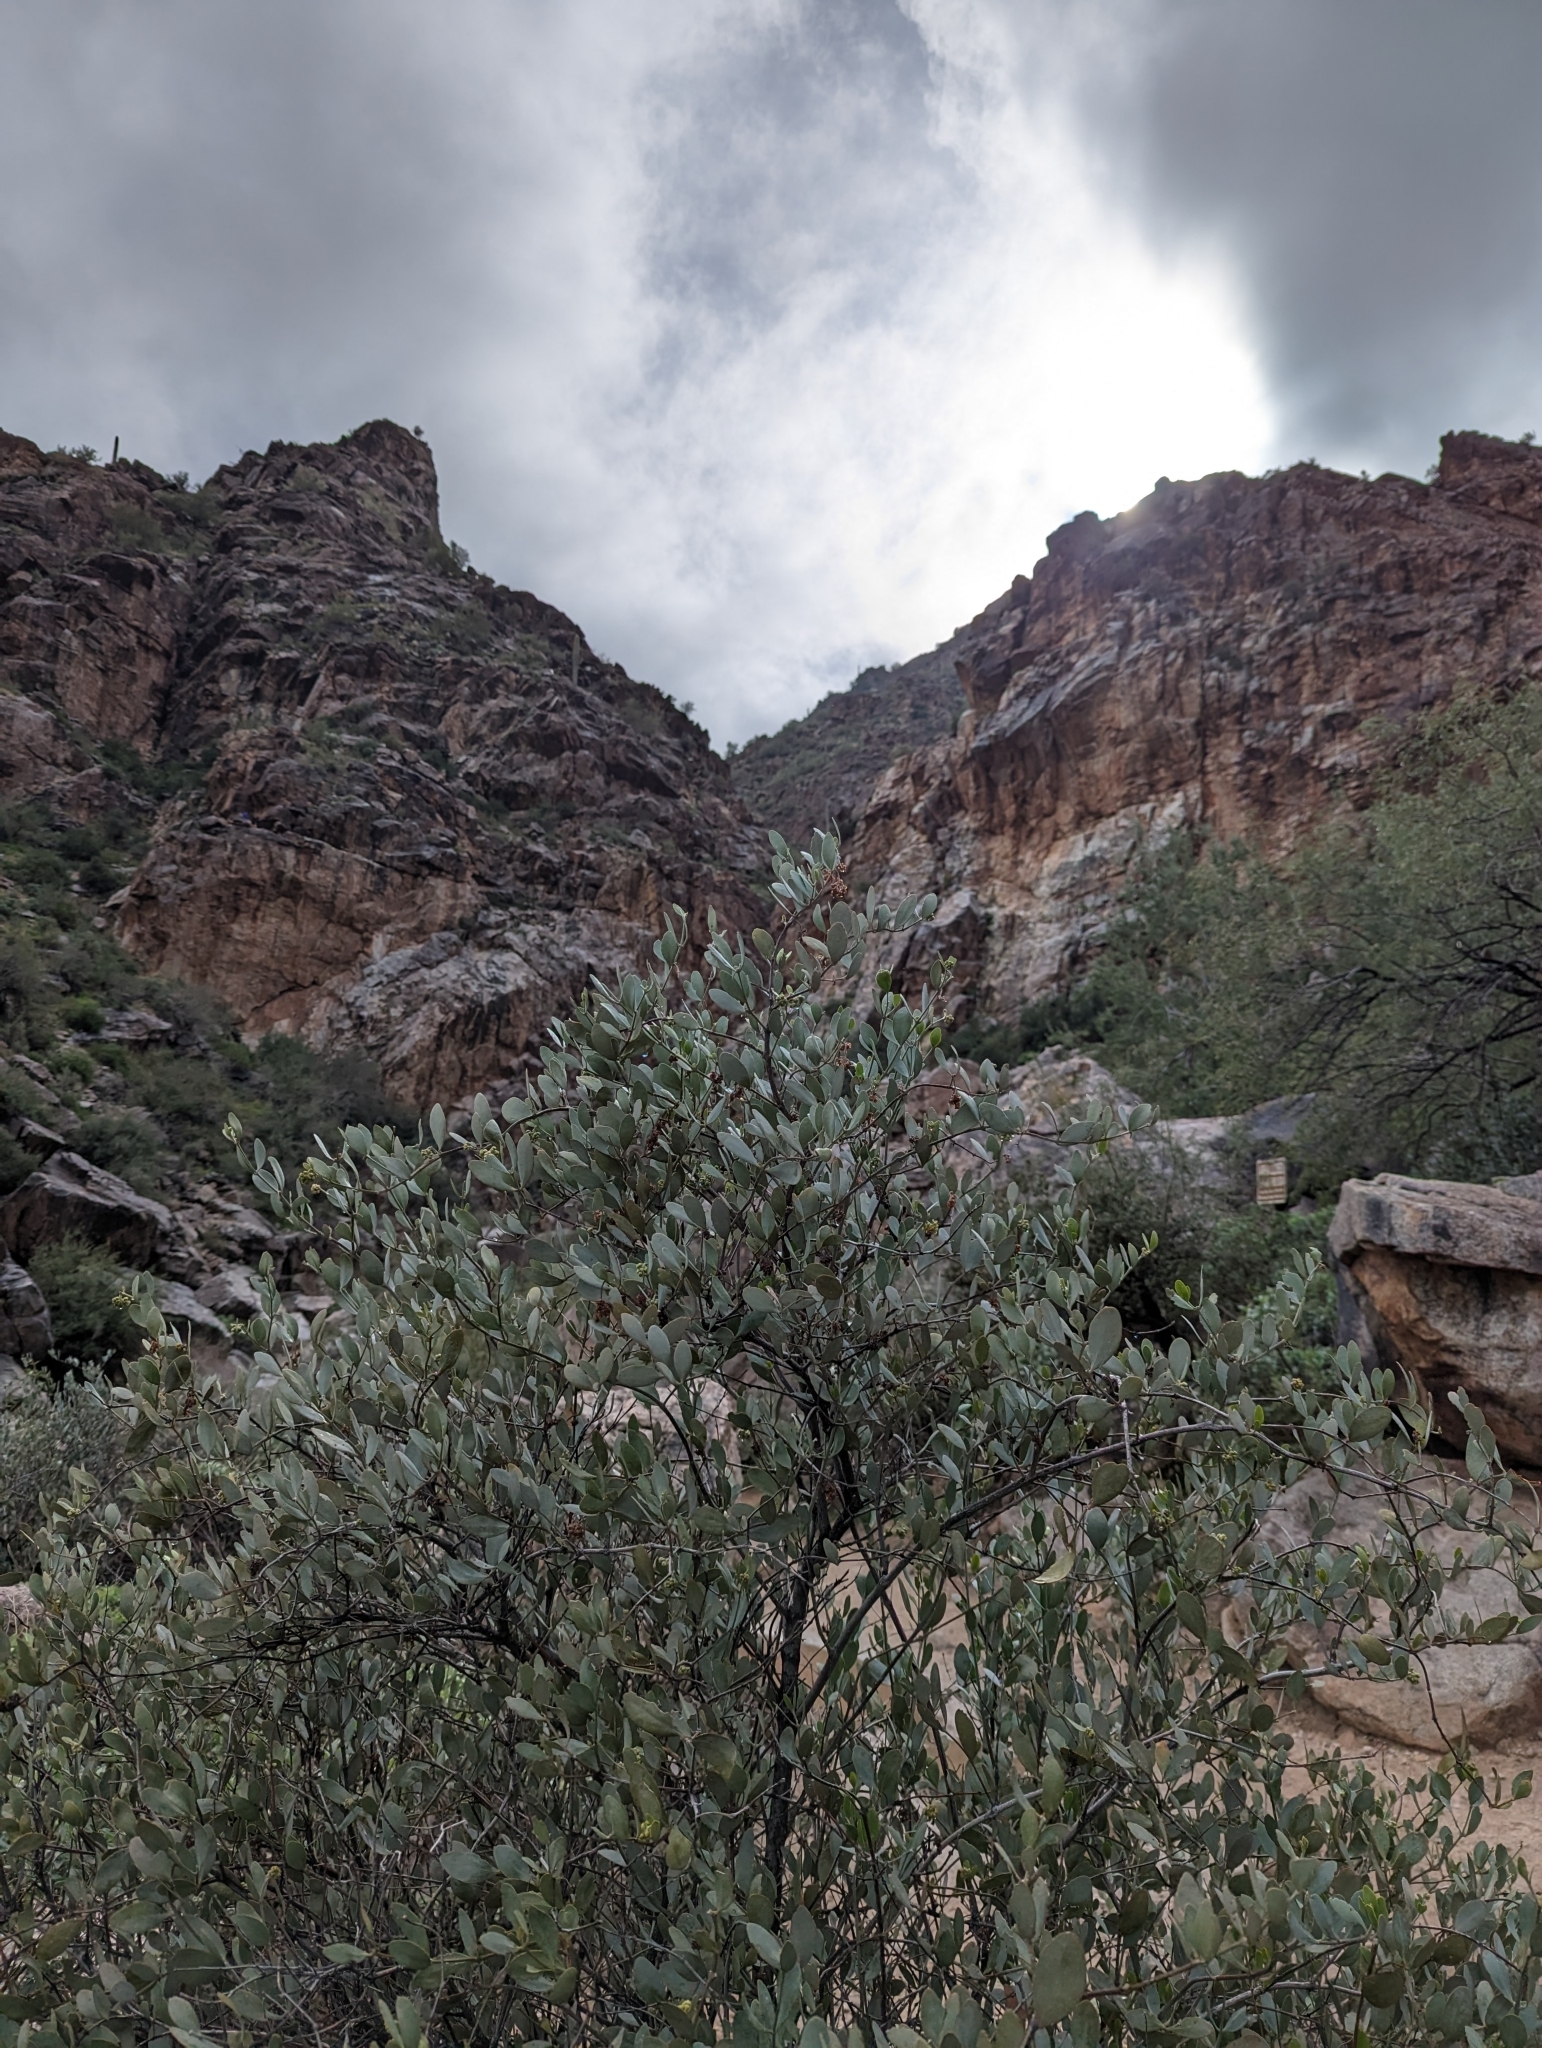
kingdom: Plantae
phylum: Tracheophyta
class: Magnoliopsida
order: Caryophyllales
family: Simmondsiaceae
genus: Simmondsia
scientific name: Simmondsia chinensis
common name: Jojoba
